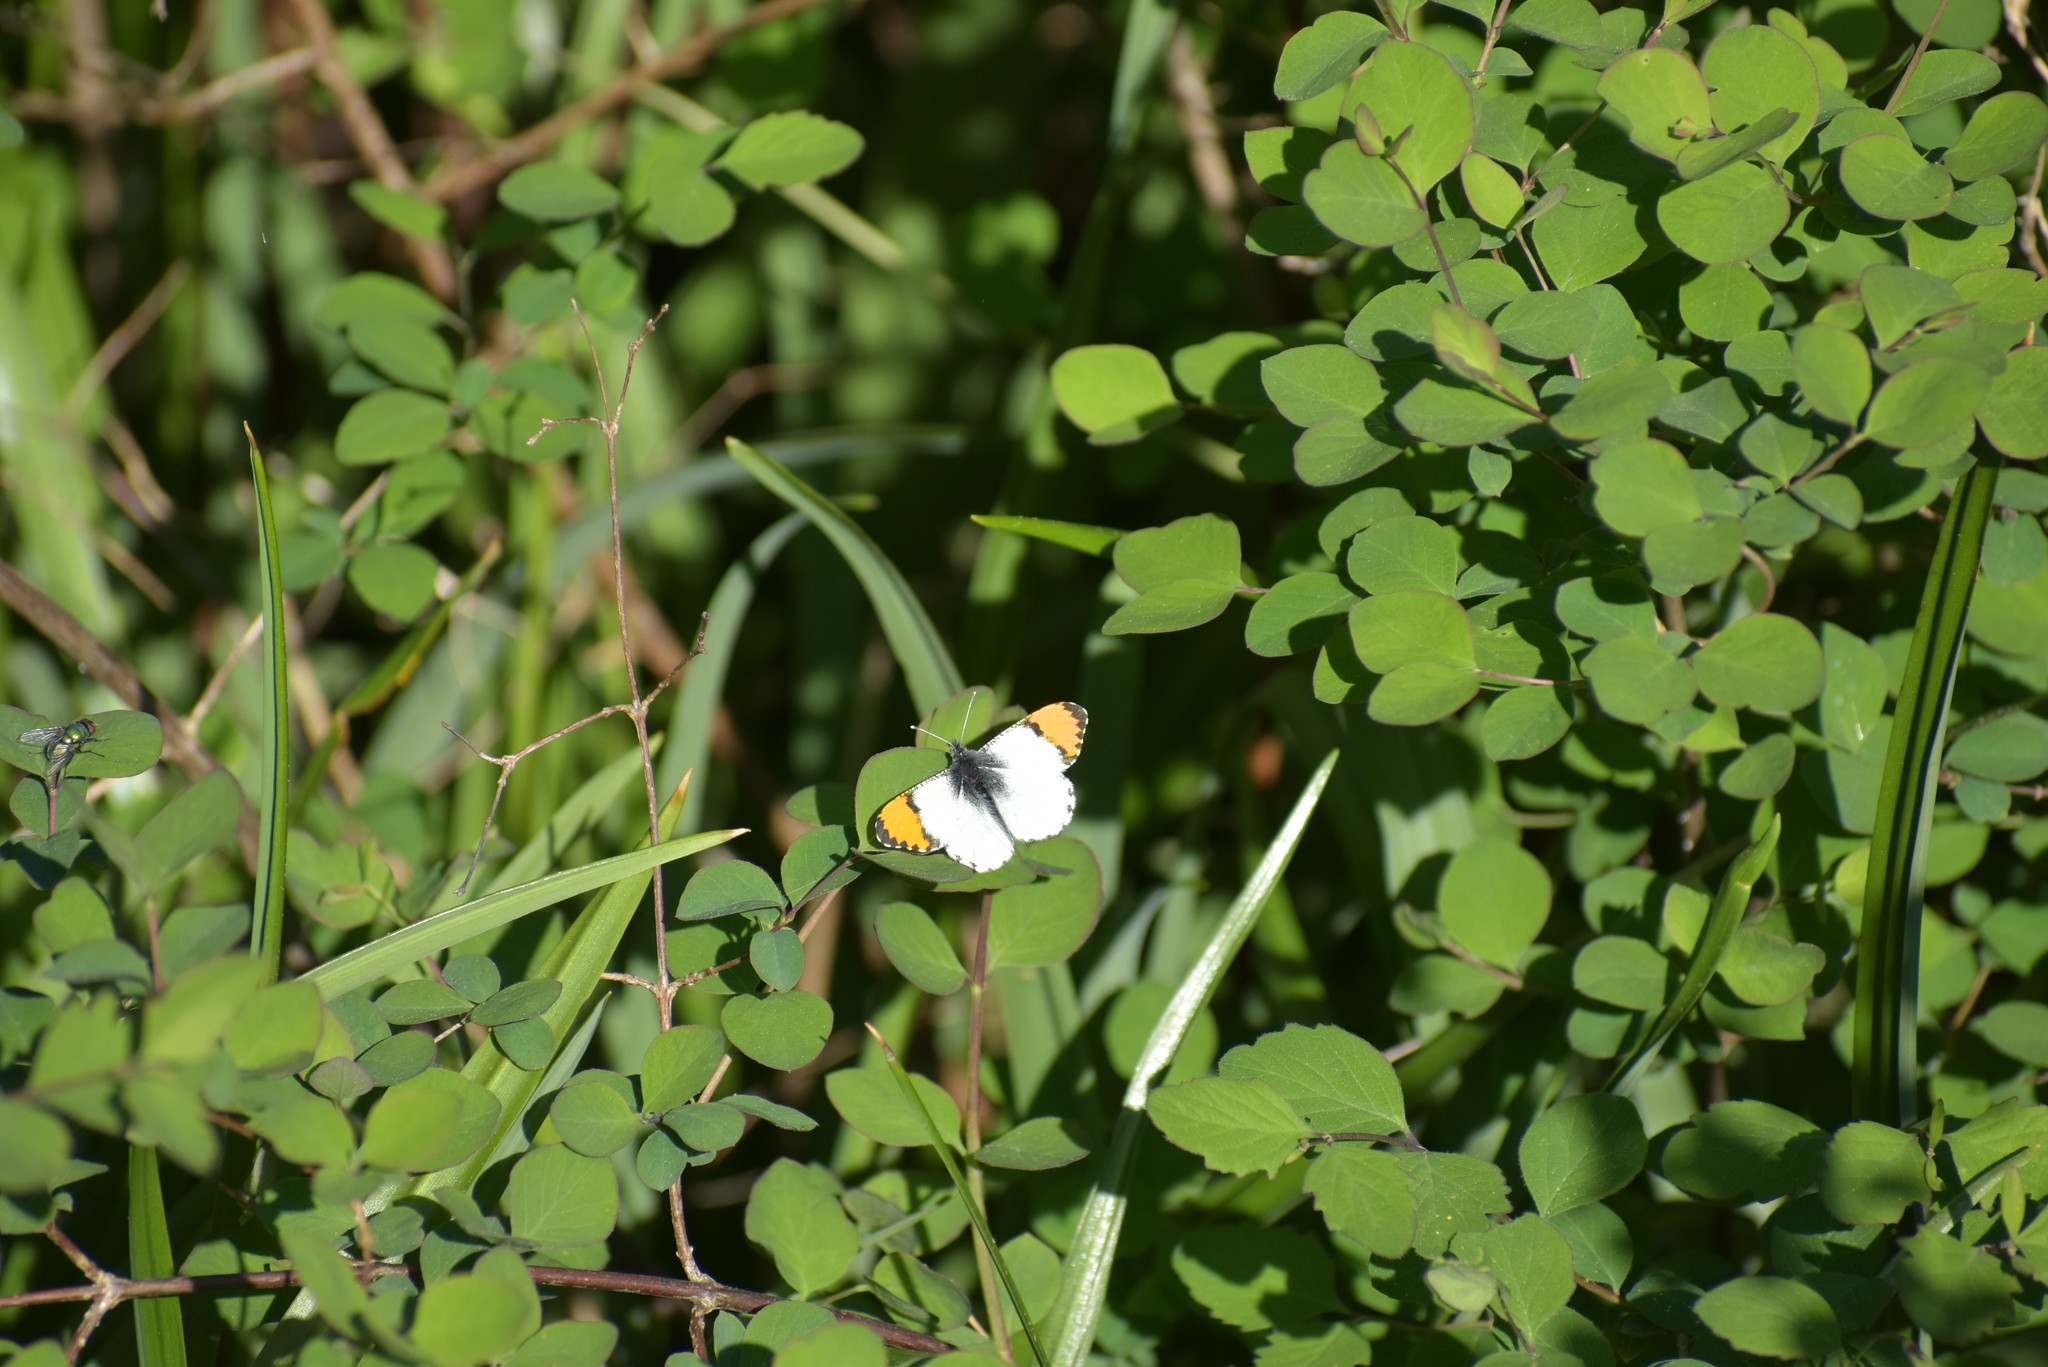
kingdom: Animalia
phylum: Arthropoda
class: Insecta
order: Lepidoptera
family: Pieridae
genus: Anthocharis
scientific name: Anthocharis julia
